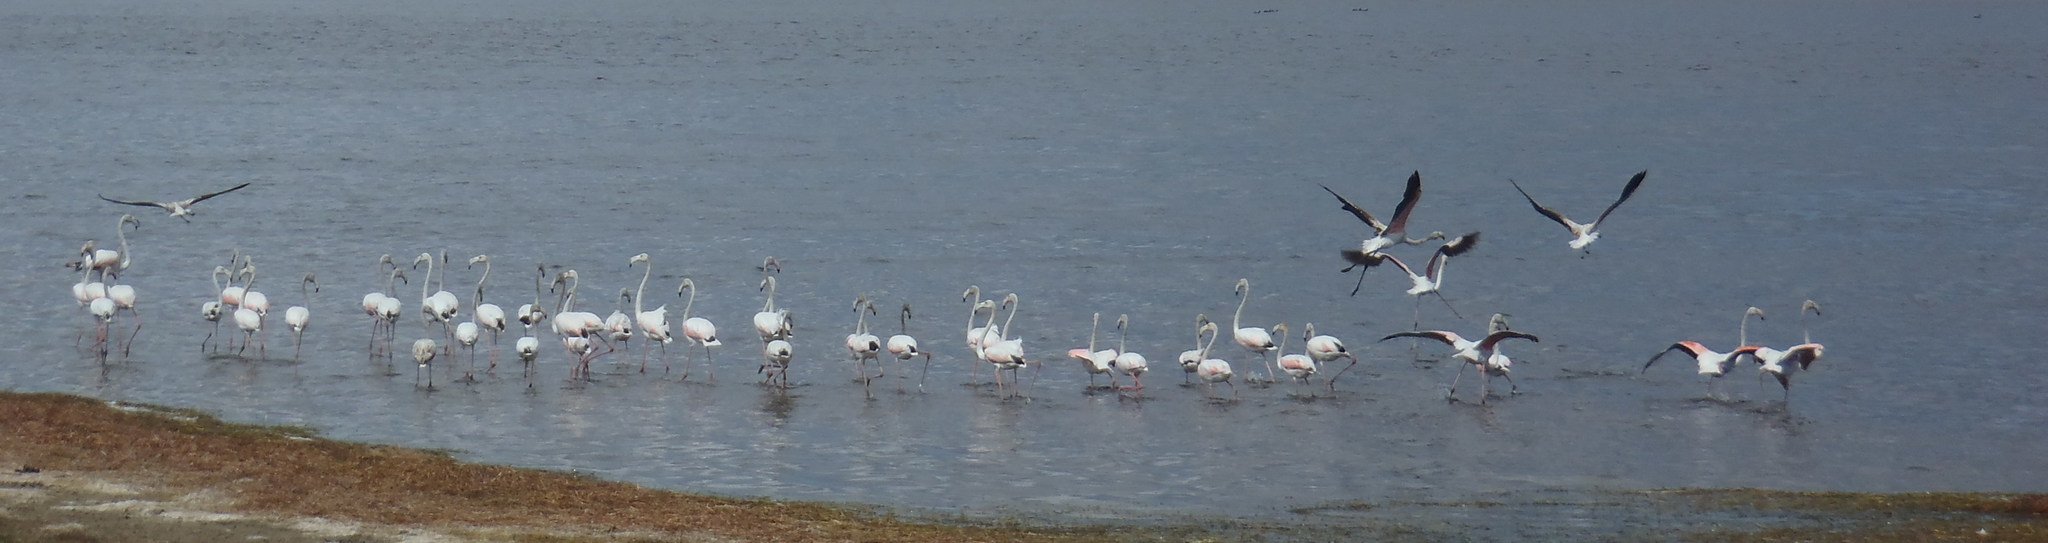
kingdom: Animalia
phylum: Chordata
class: Aves
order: Phoenicopteriformes
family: Phoenicopteridae
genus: Phoenicopterus
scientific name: Phoenicopterus roseus
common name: Greater flamingo
